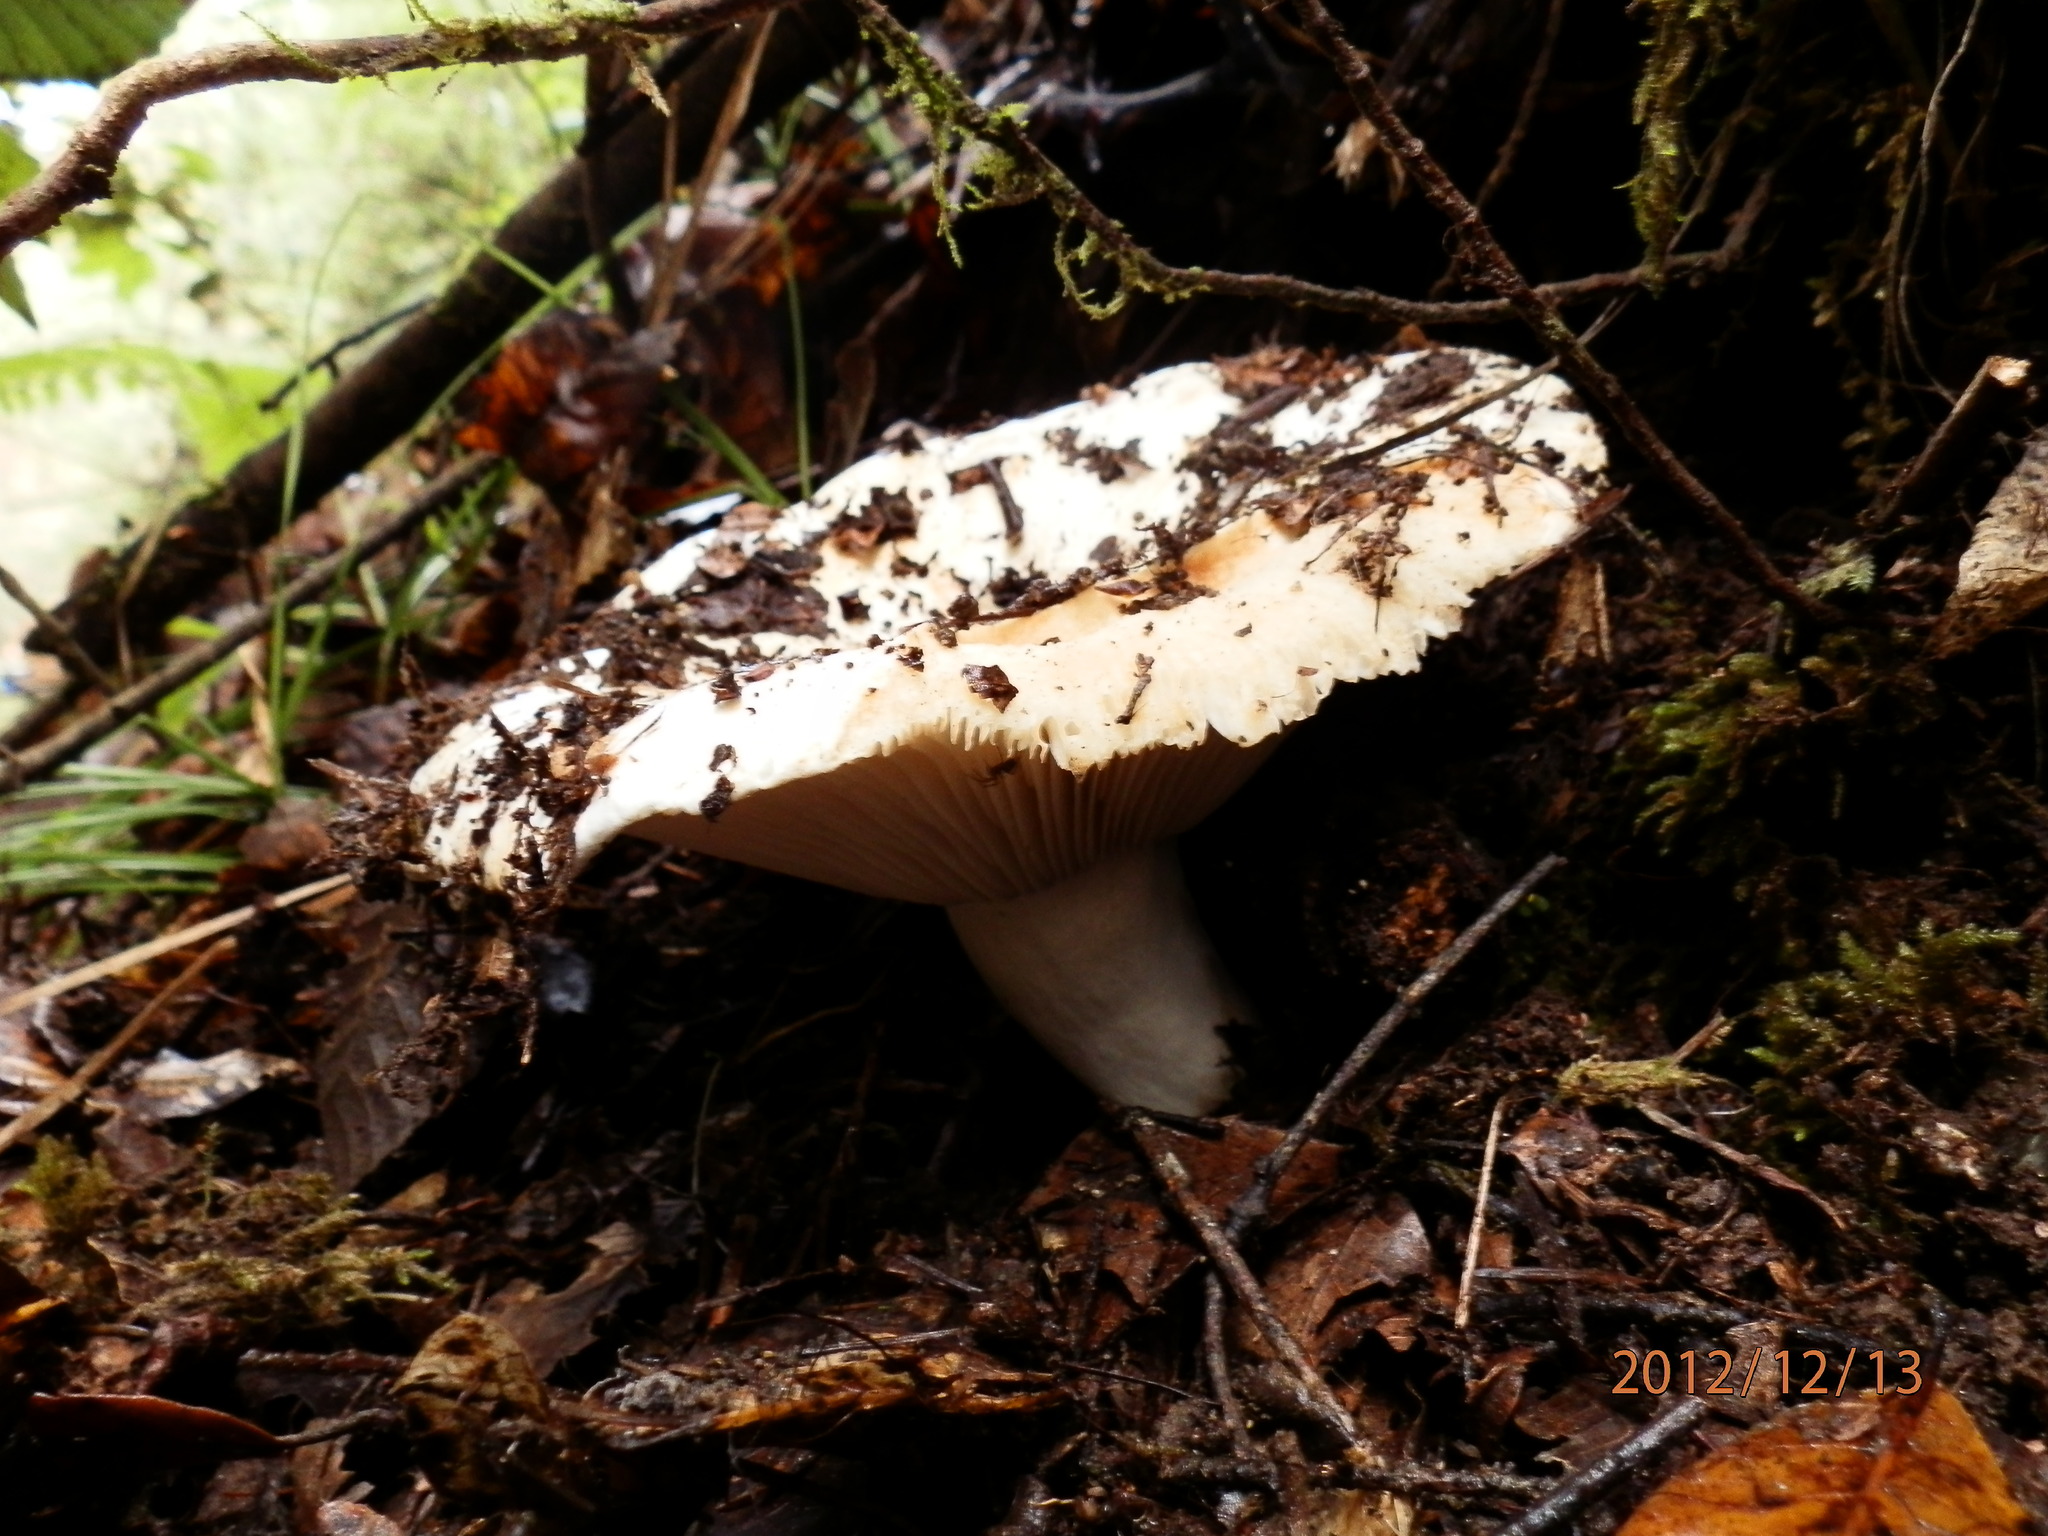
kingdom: Fungi
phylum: Basidiomycota
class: Agaricomycetes
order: Russulales
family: Russulaceae
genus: Russula
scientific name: Russula brevipes
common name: Short-stemmed russula
